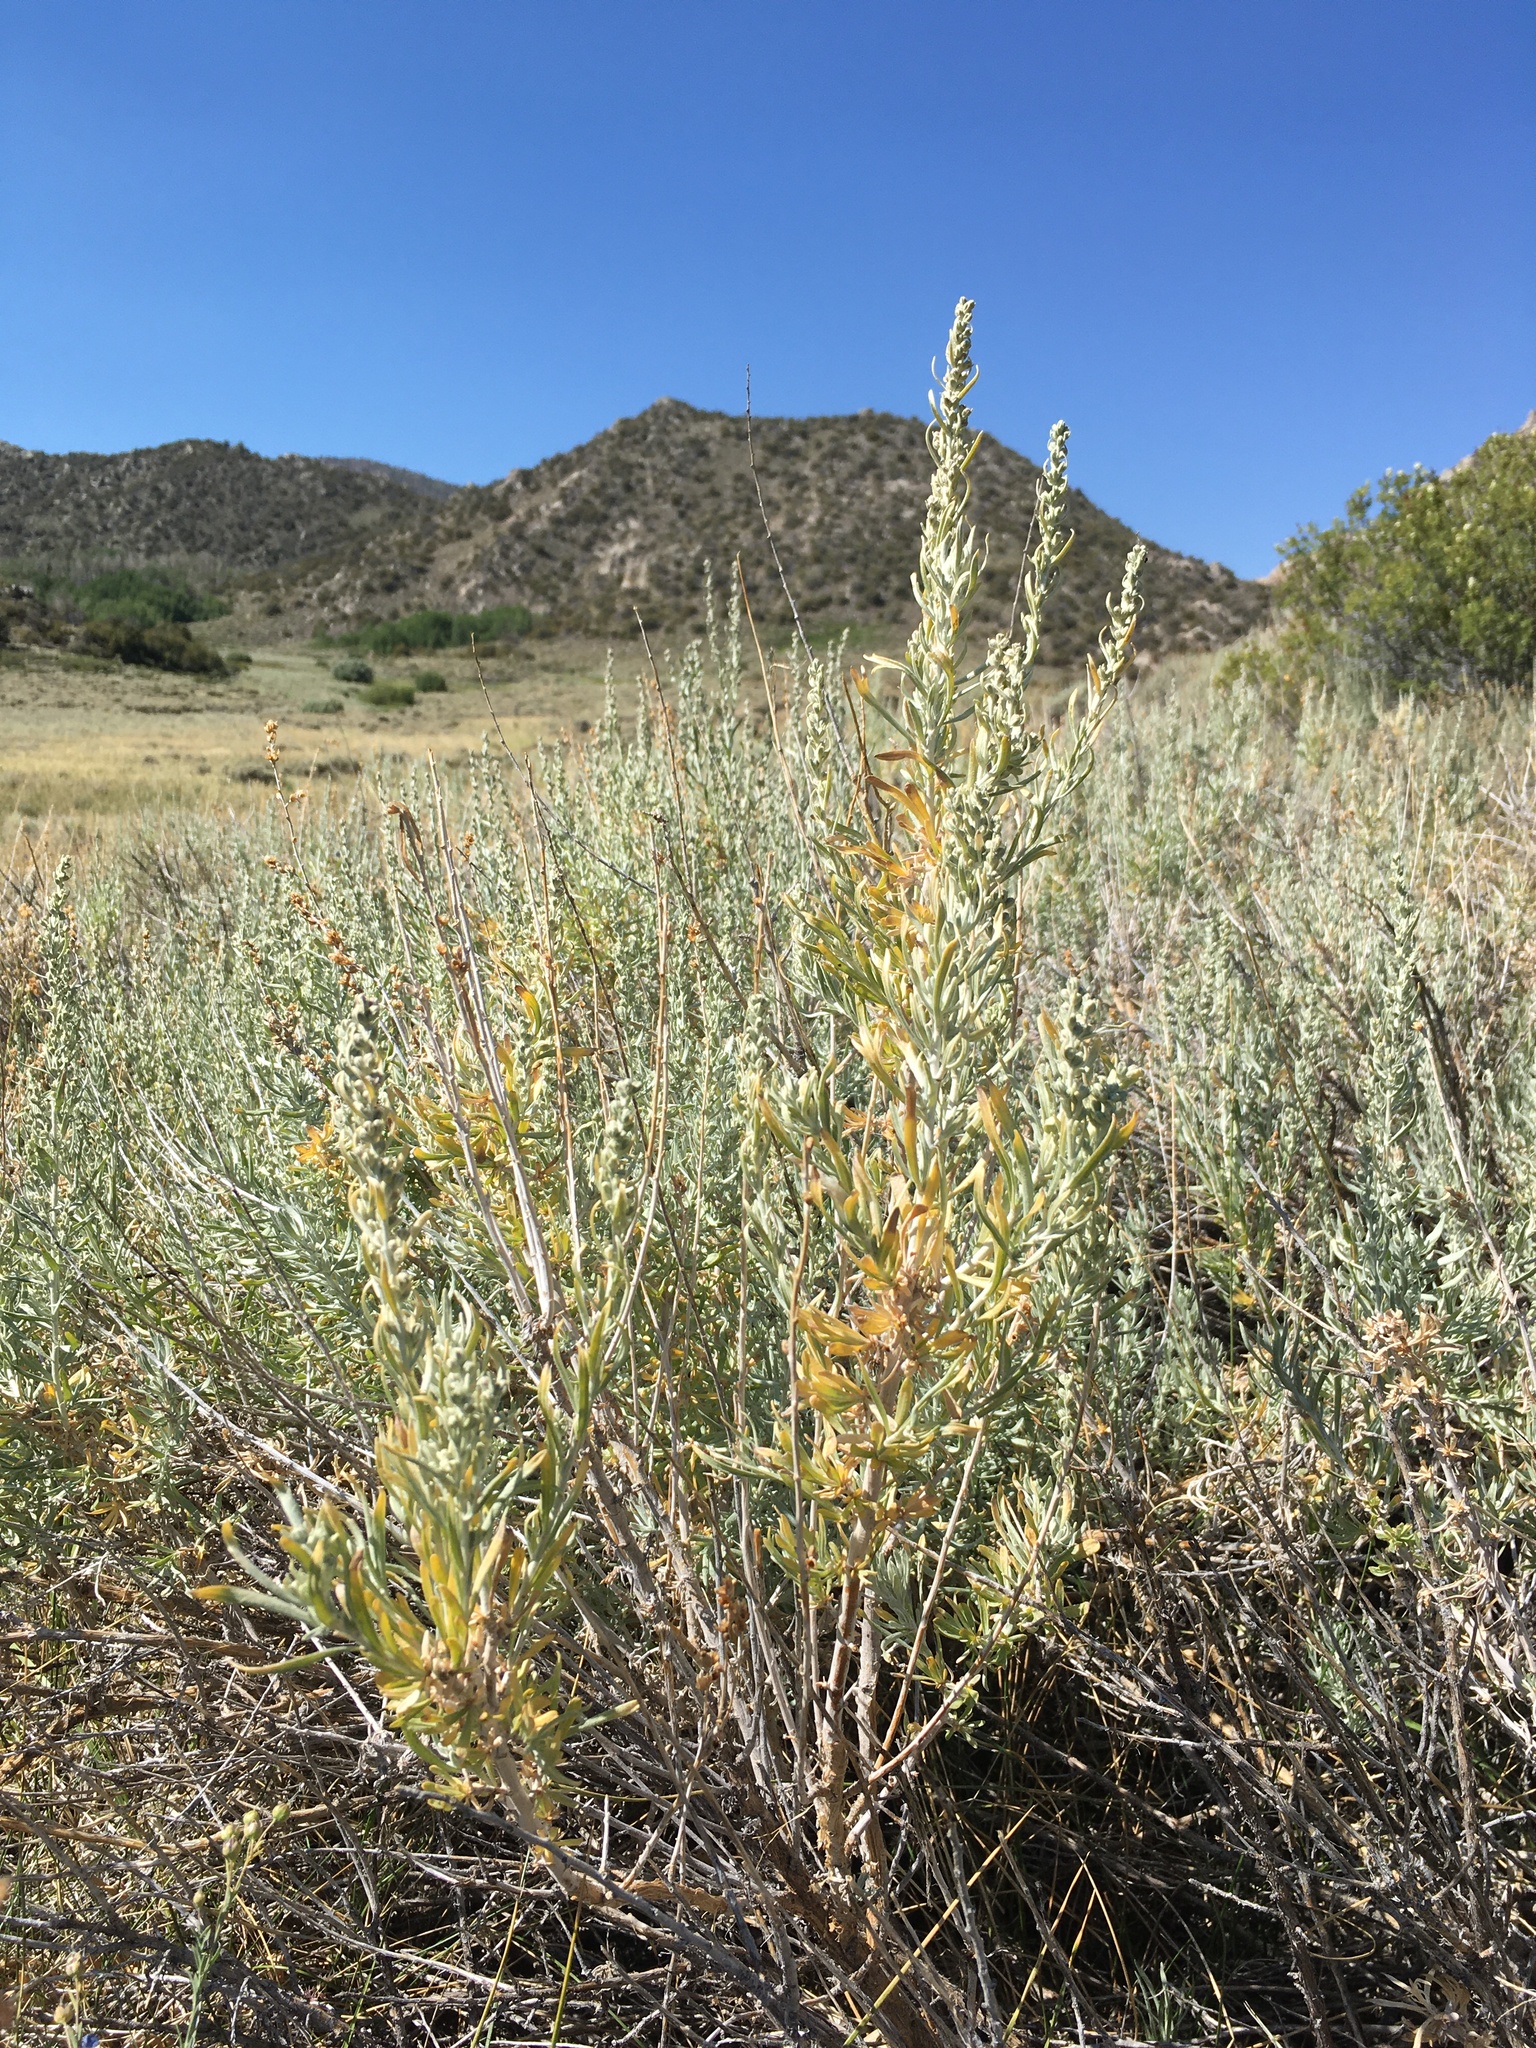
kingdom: Plantae
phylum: Tracheophyta
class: Magnoliopsida
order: Asterales
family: Asteraceae
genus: Artemisia
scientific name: Artemisia cana
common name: Silver sagebrush
